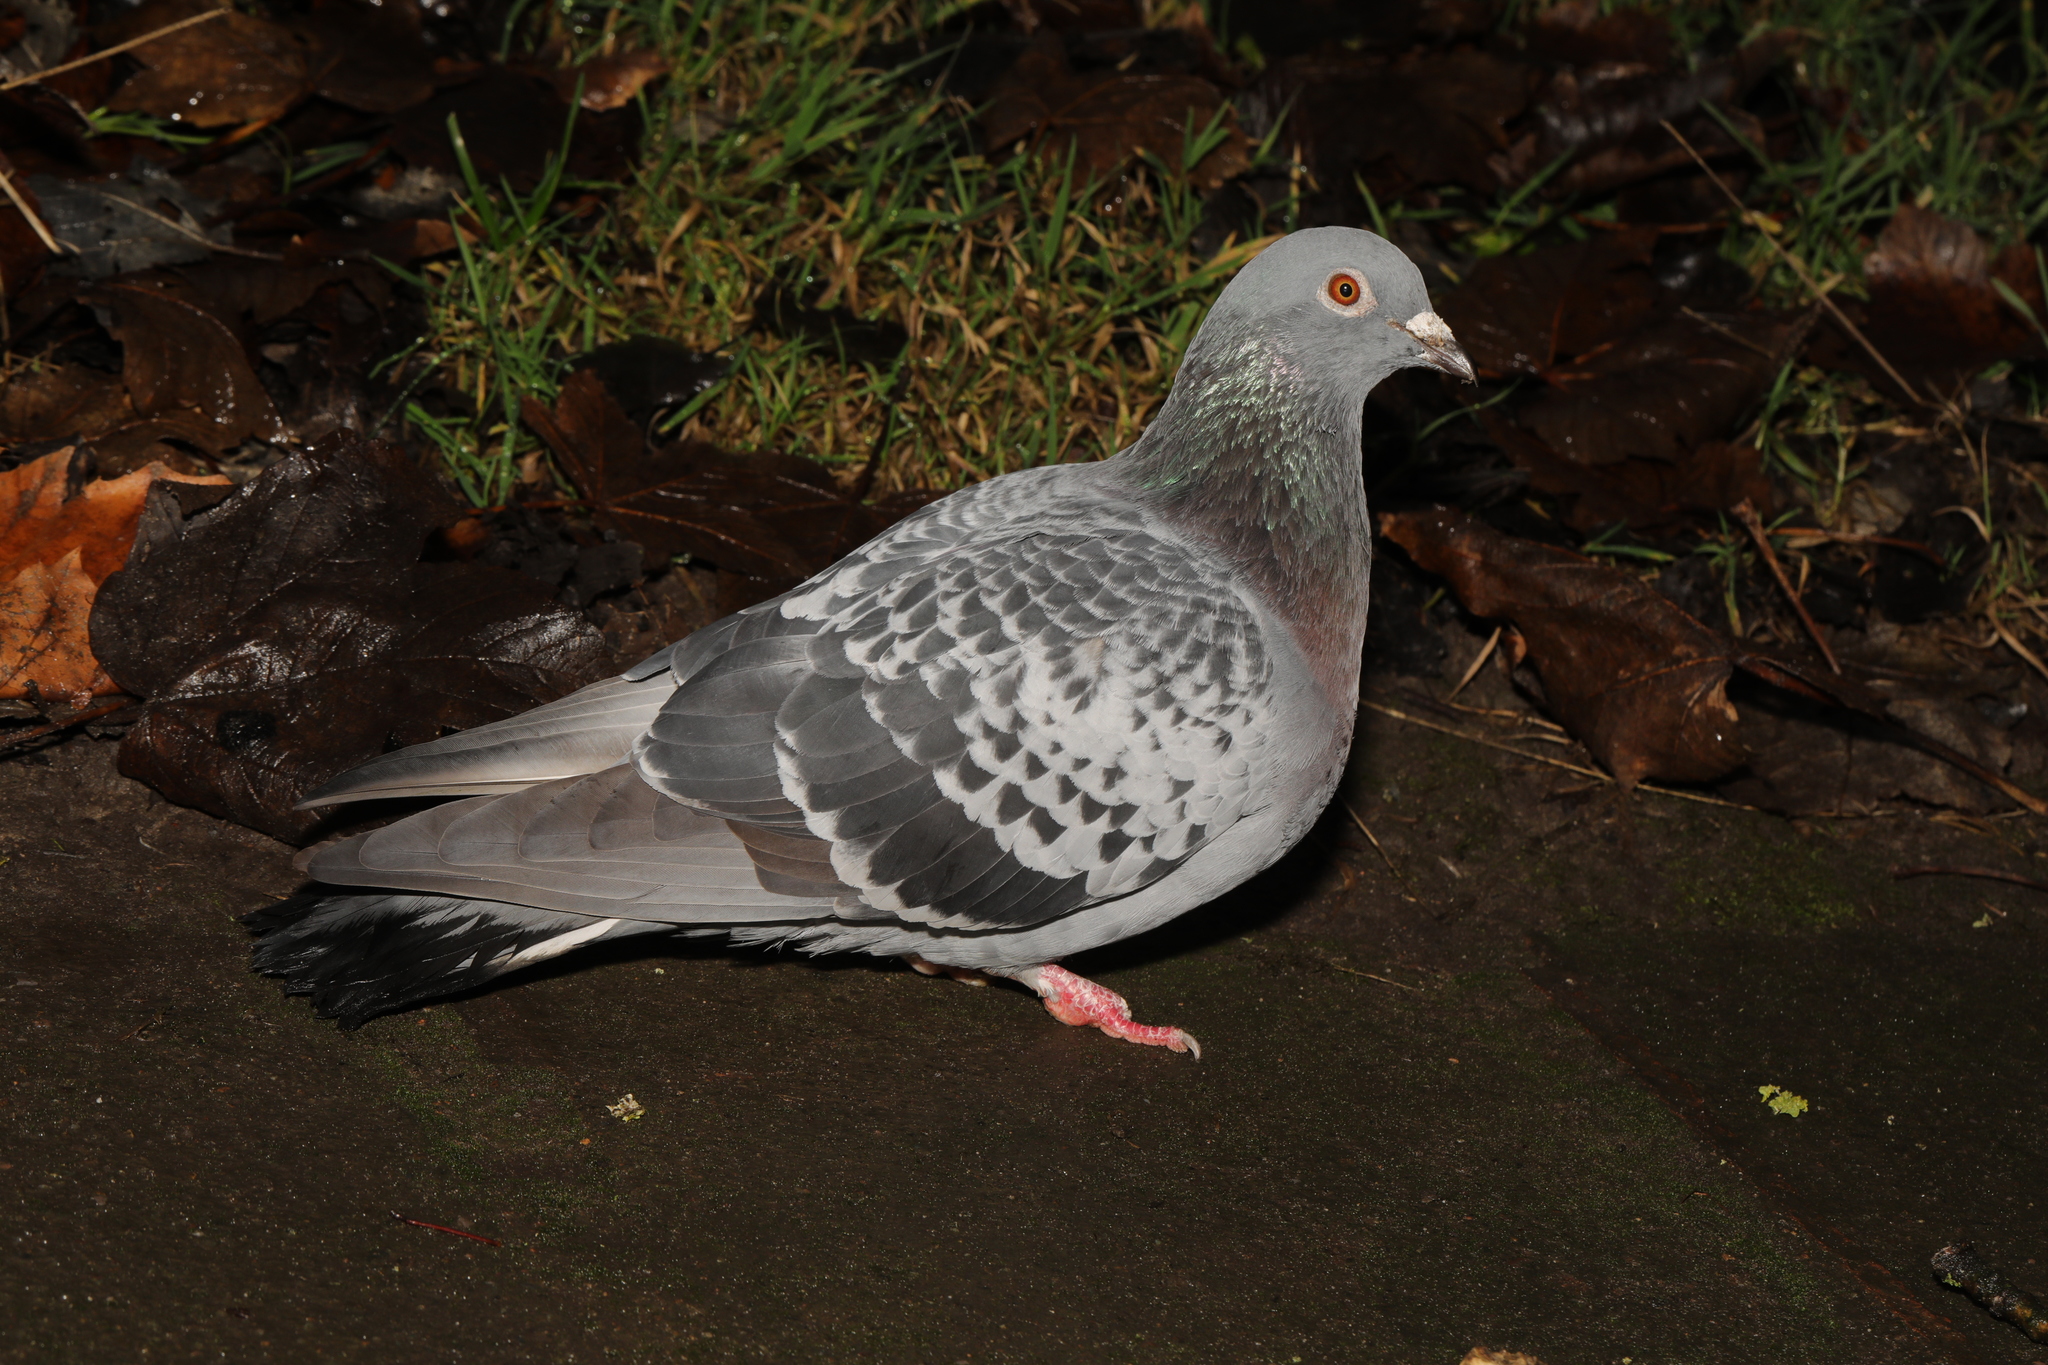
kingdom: Animalia
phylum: Chordata
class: Aves
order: Columbiformes
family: Columbidae
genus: Columba
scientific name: Columba livia
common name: Rock pigeon
